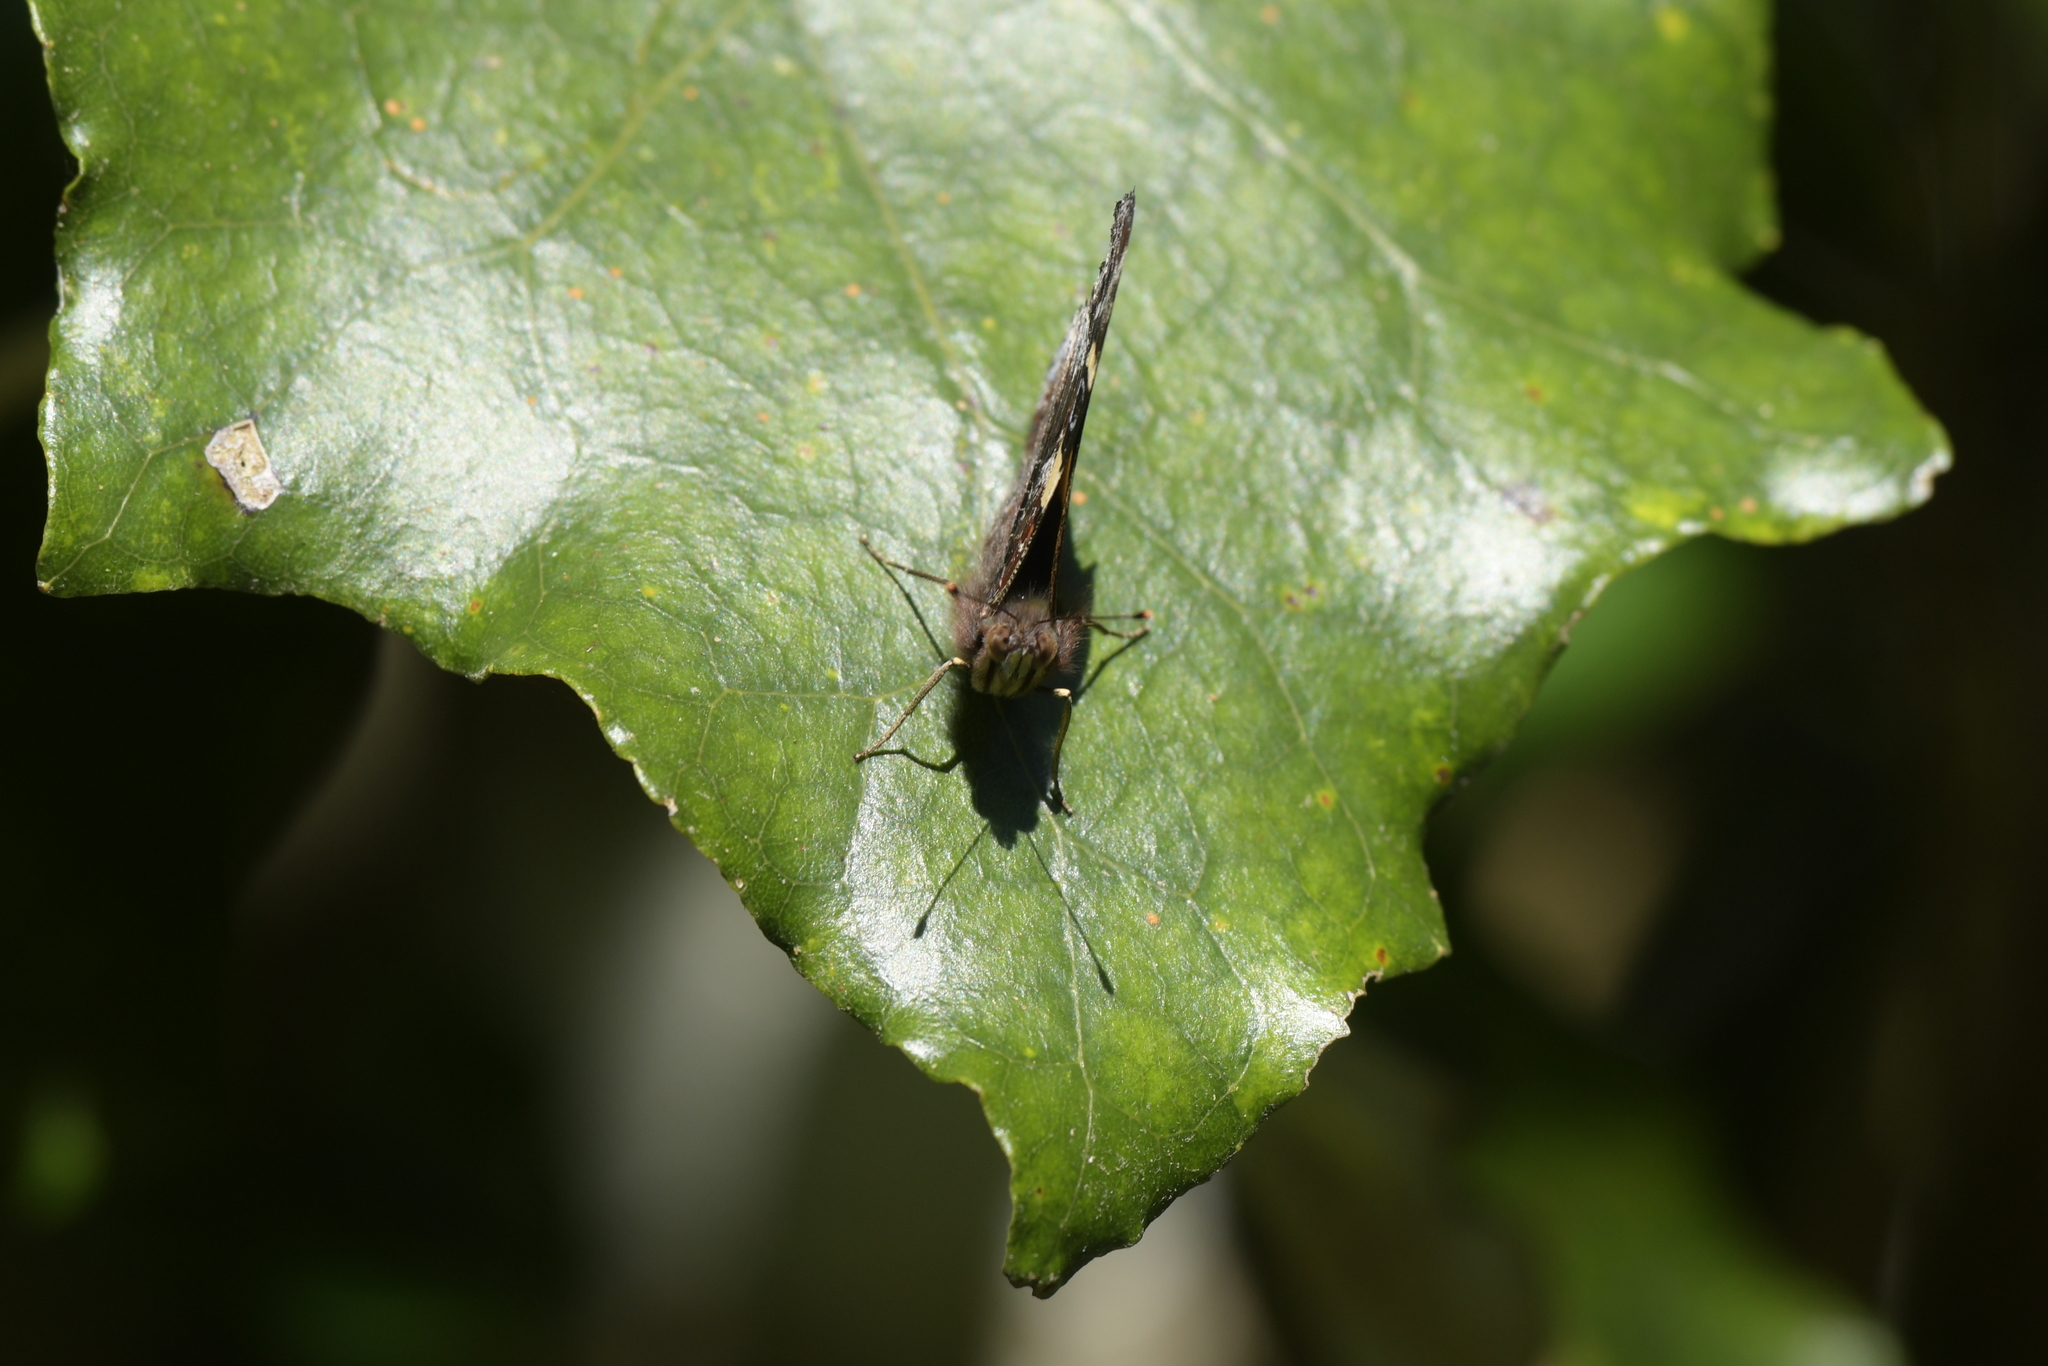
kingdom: Animalia
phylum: Arthropoda
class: Insecta
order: Lepidoptera
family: Nymphalidae
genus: Vanessa
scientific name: Vanessa itea
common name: Yellow admiral
